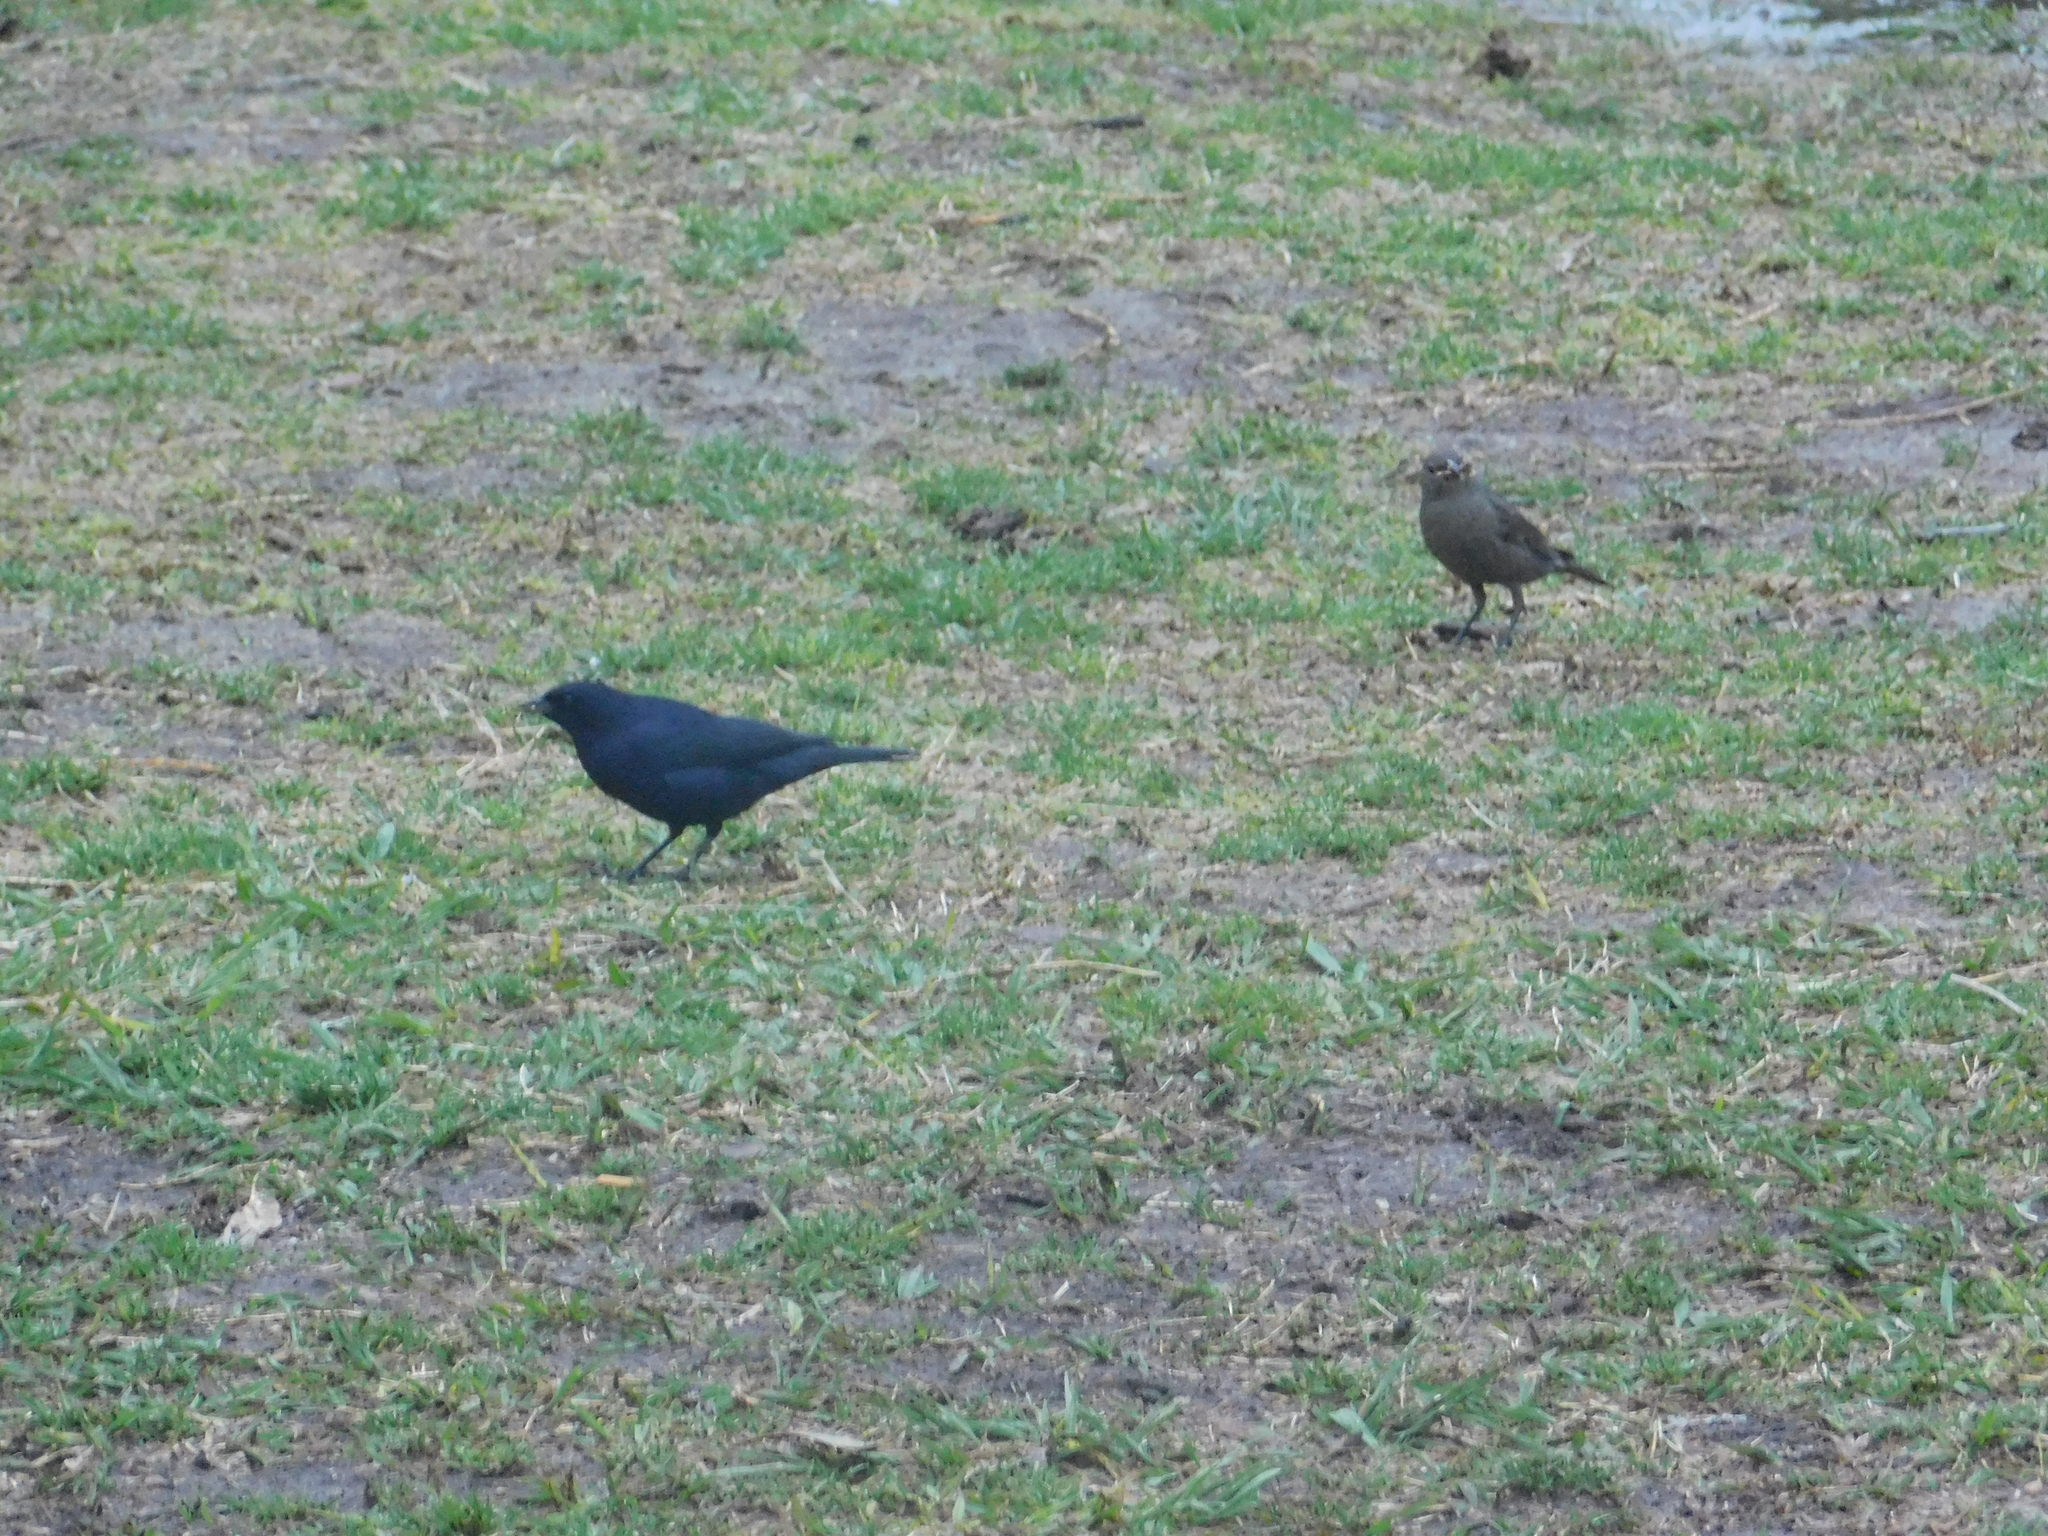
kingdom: Animalia
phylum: Chordata
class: Aves
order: Passeriformes
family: Icteridae
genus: Molothrus
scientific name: Molothrus bonariensis
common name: Shiny cowbird
